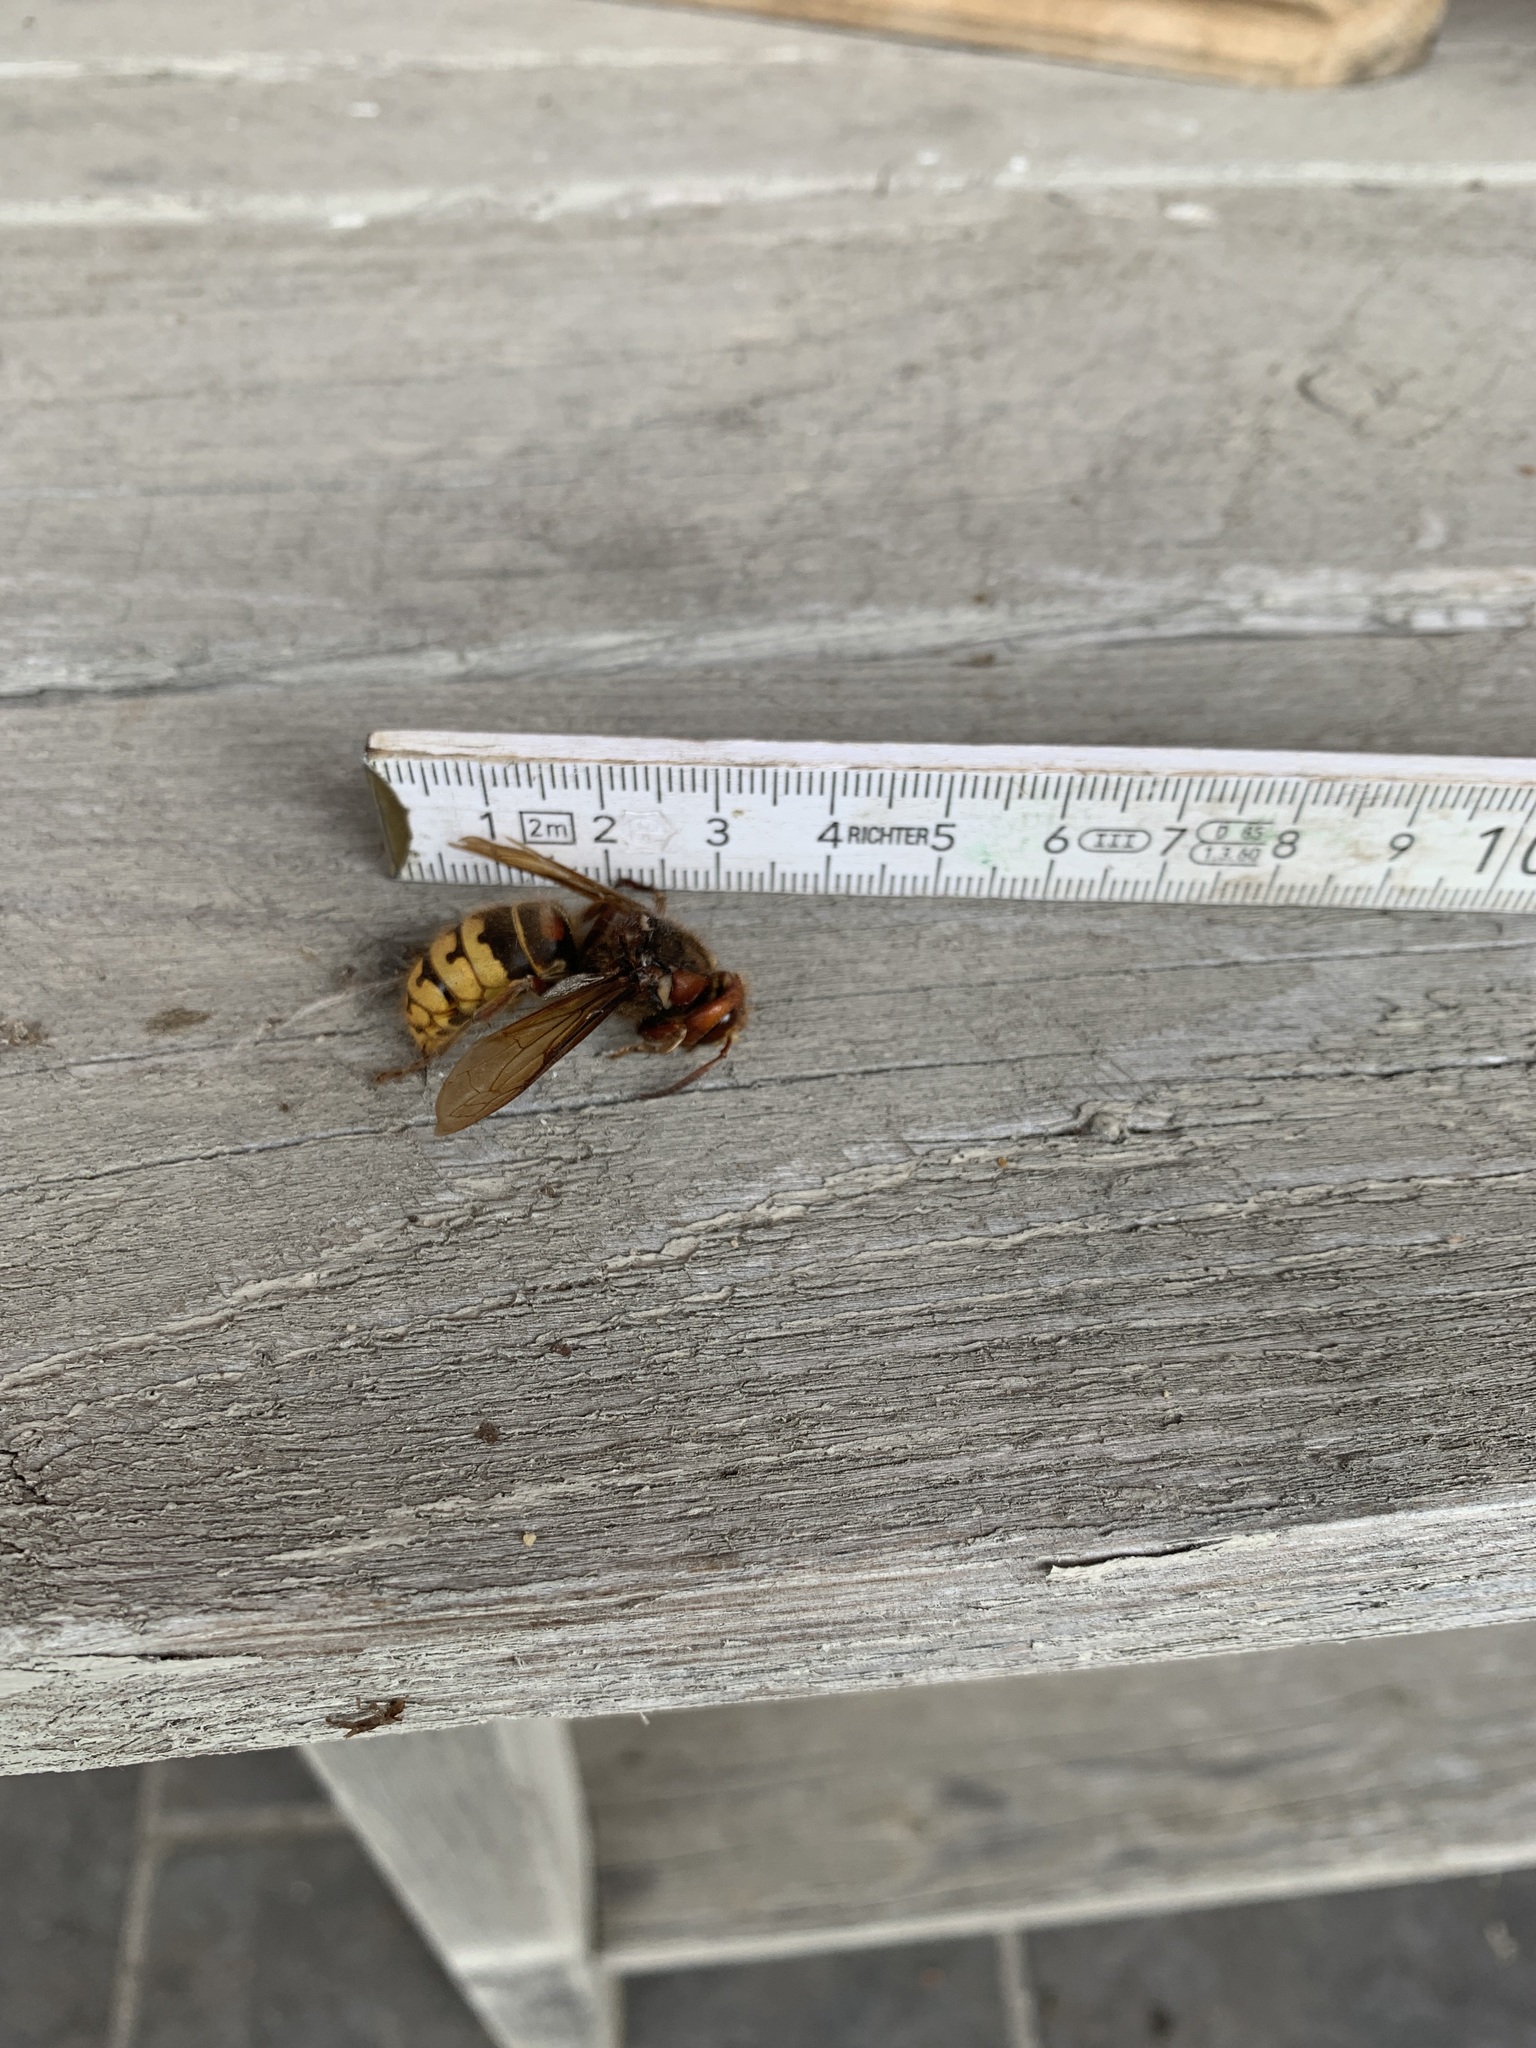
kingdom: Animalia
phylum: Arthropoda
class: Insecta
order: Hymenoptera
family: Vespidae
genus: Vespa
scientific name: Vespa crabro
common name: Hornet
